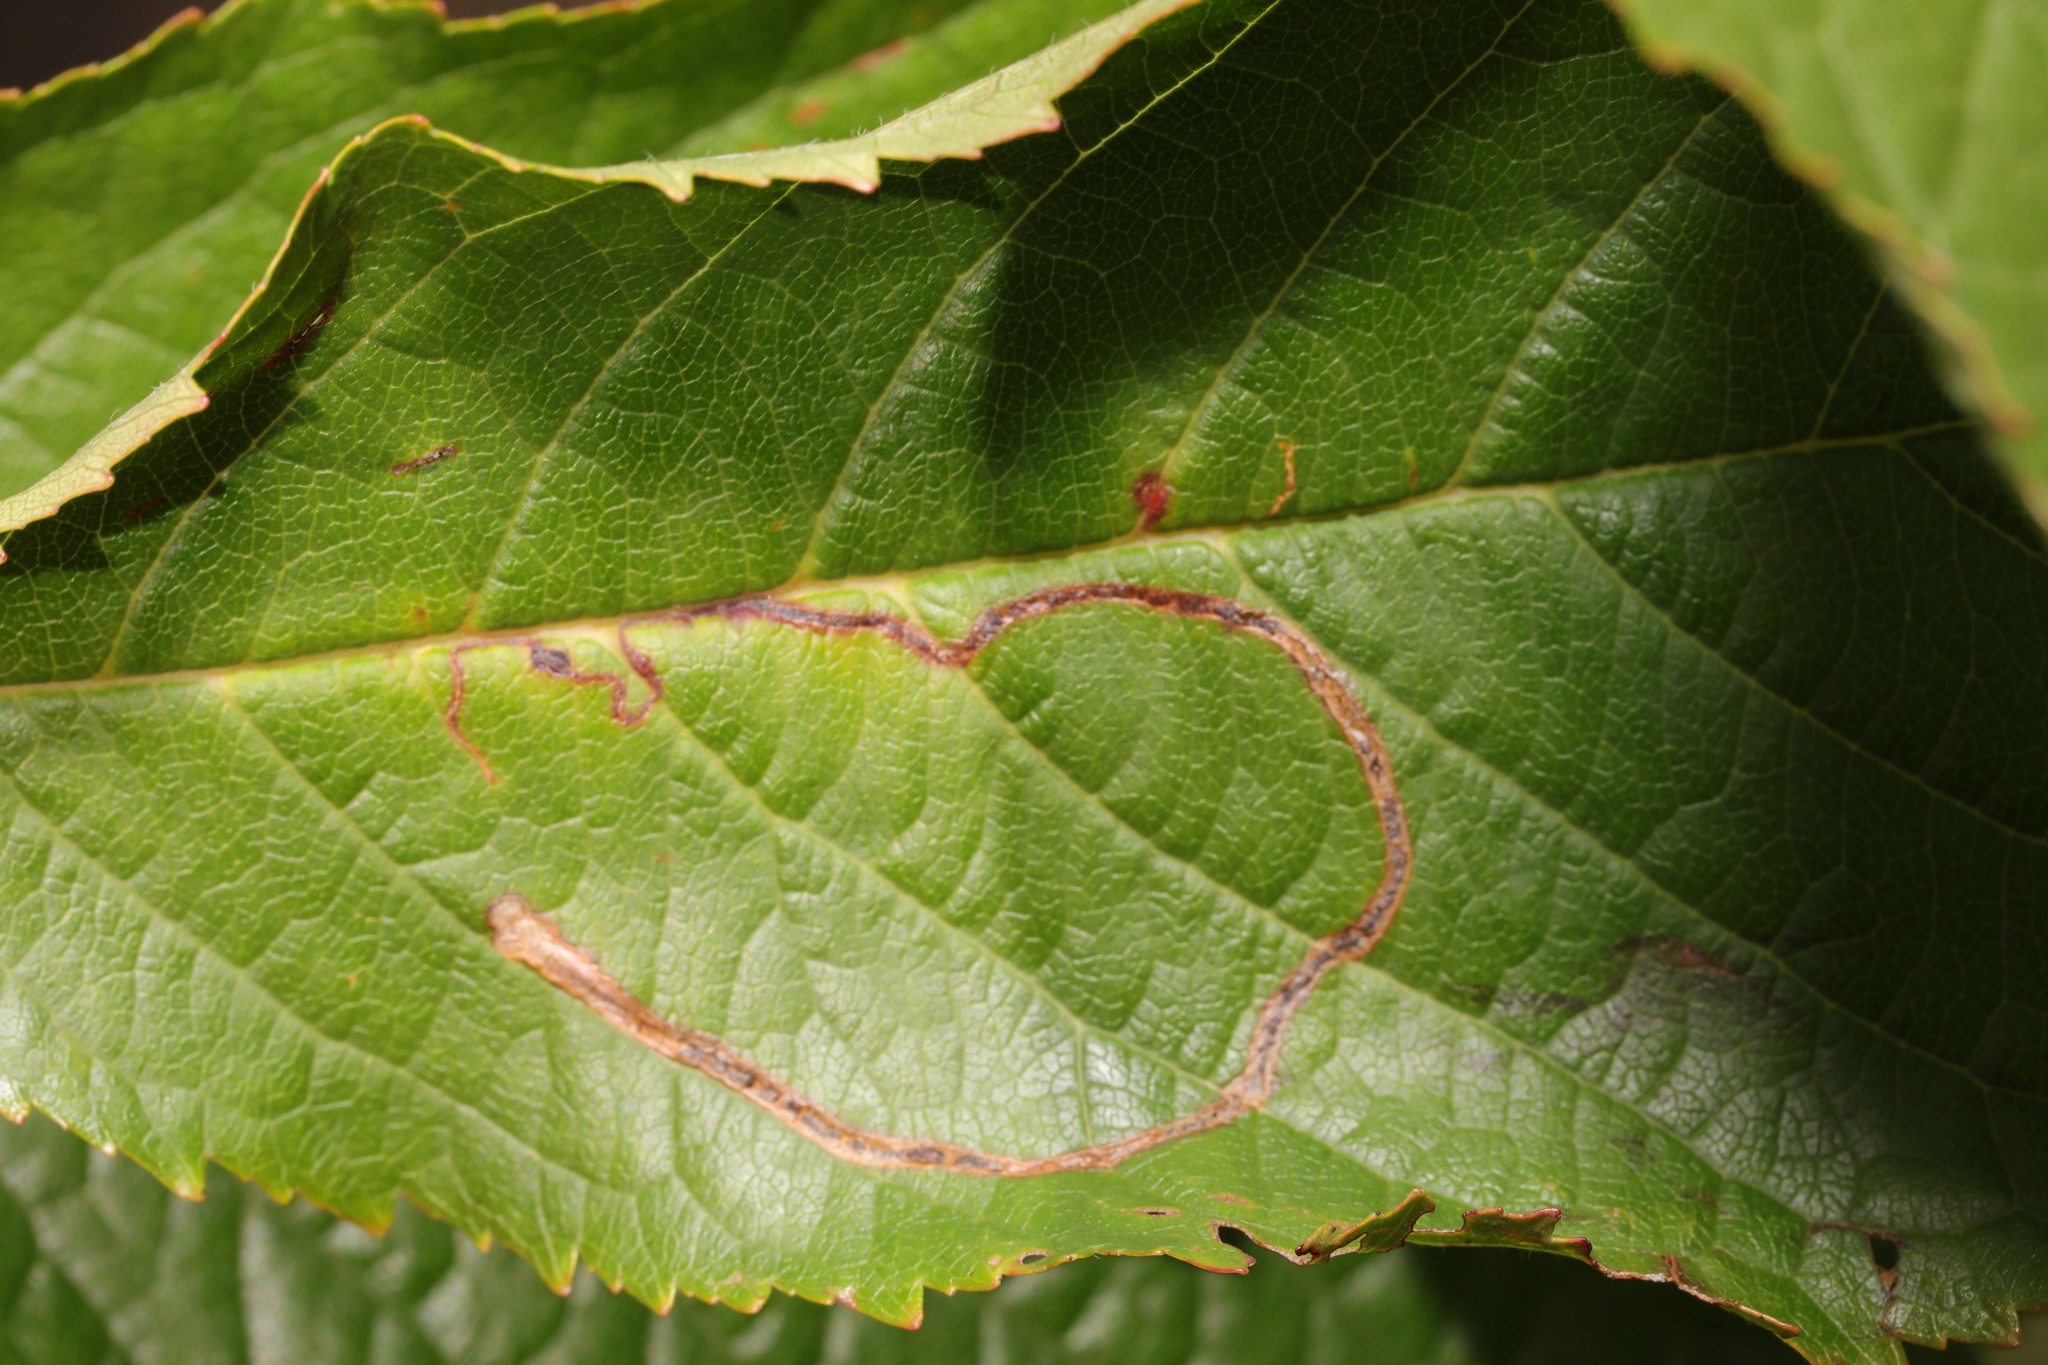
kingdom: Animalia
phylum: Arthropoda
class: Insecta
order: Lepidoptera
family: Lyonetiidae
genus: Lyonetia
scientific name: Lyonetia clerkella
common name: Apple leaf miner
